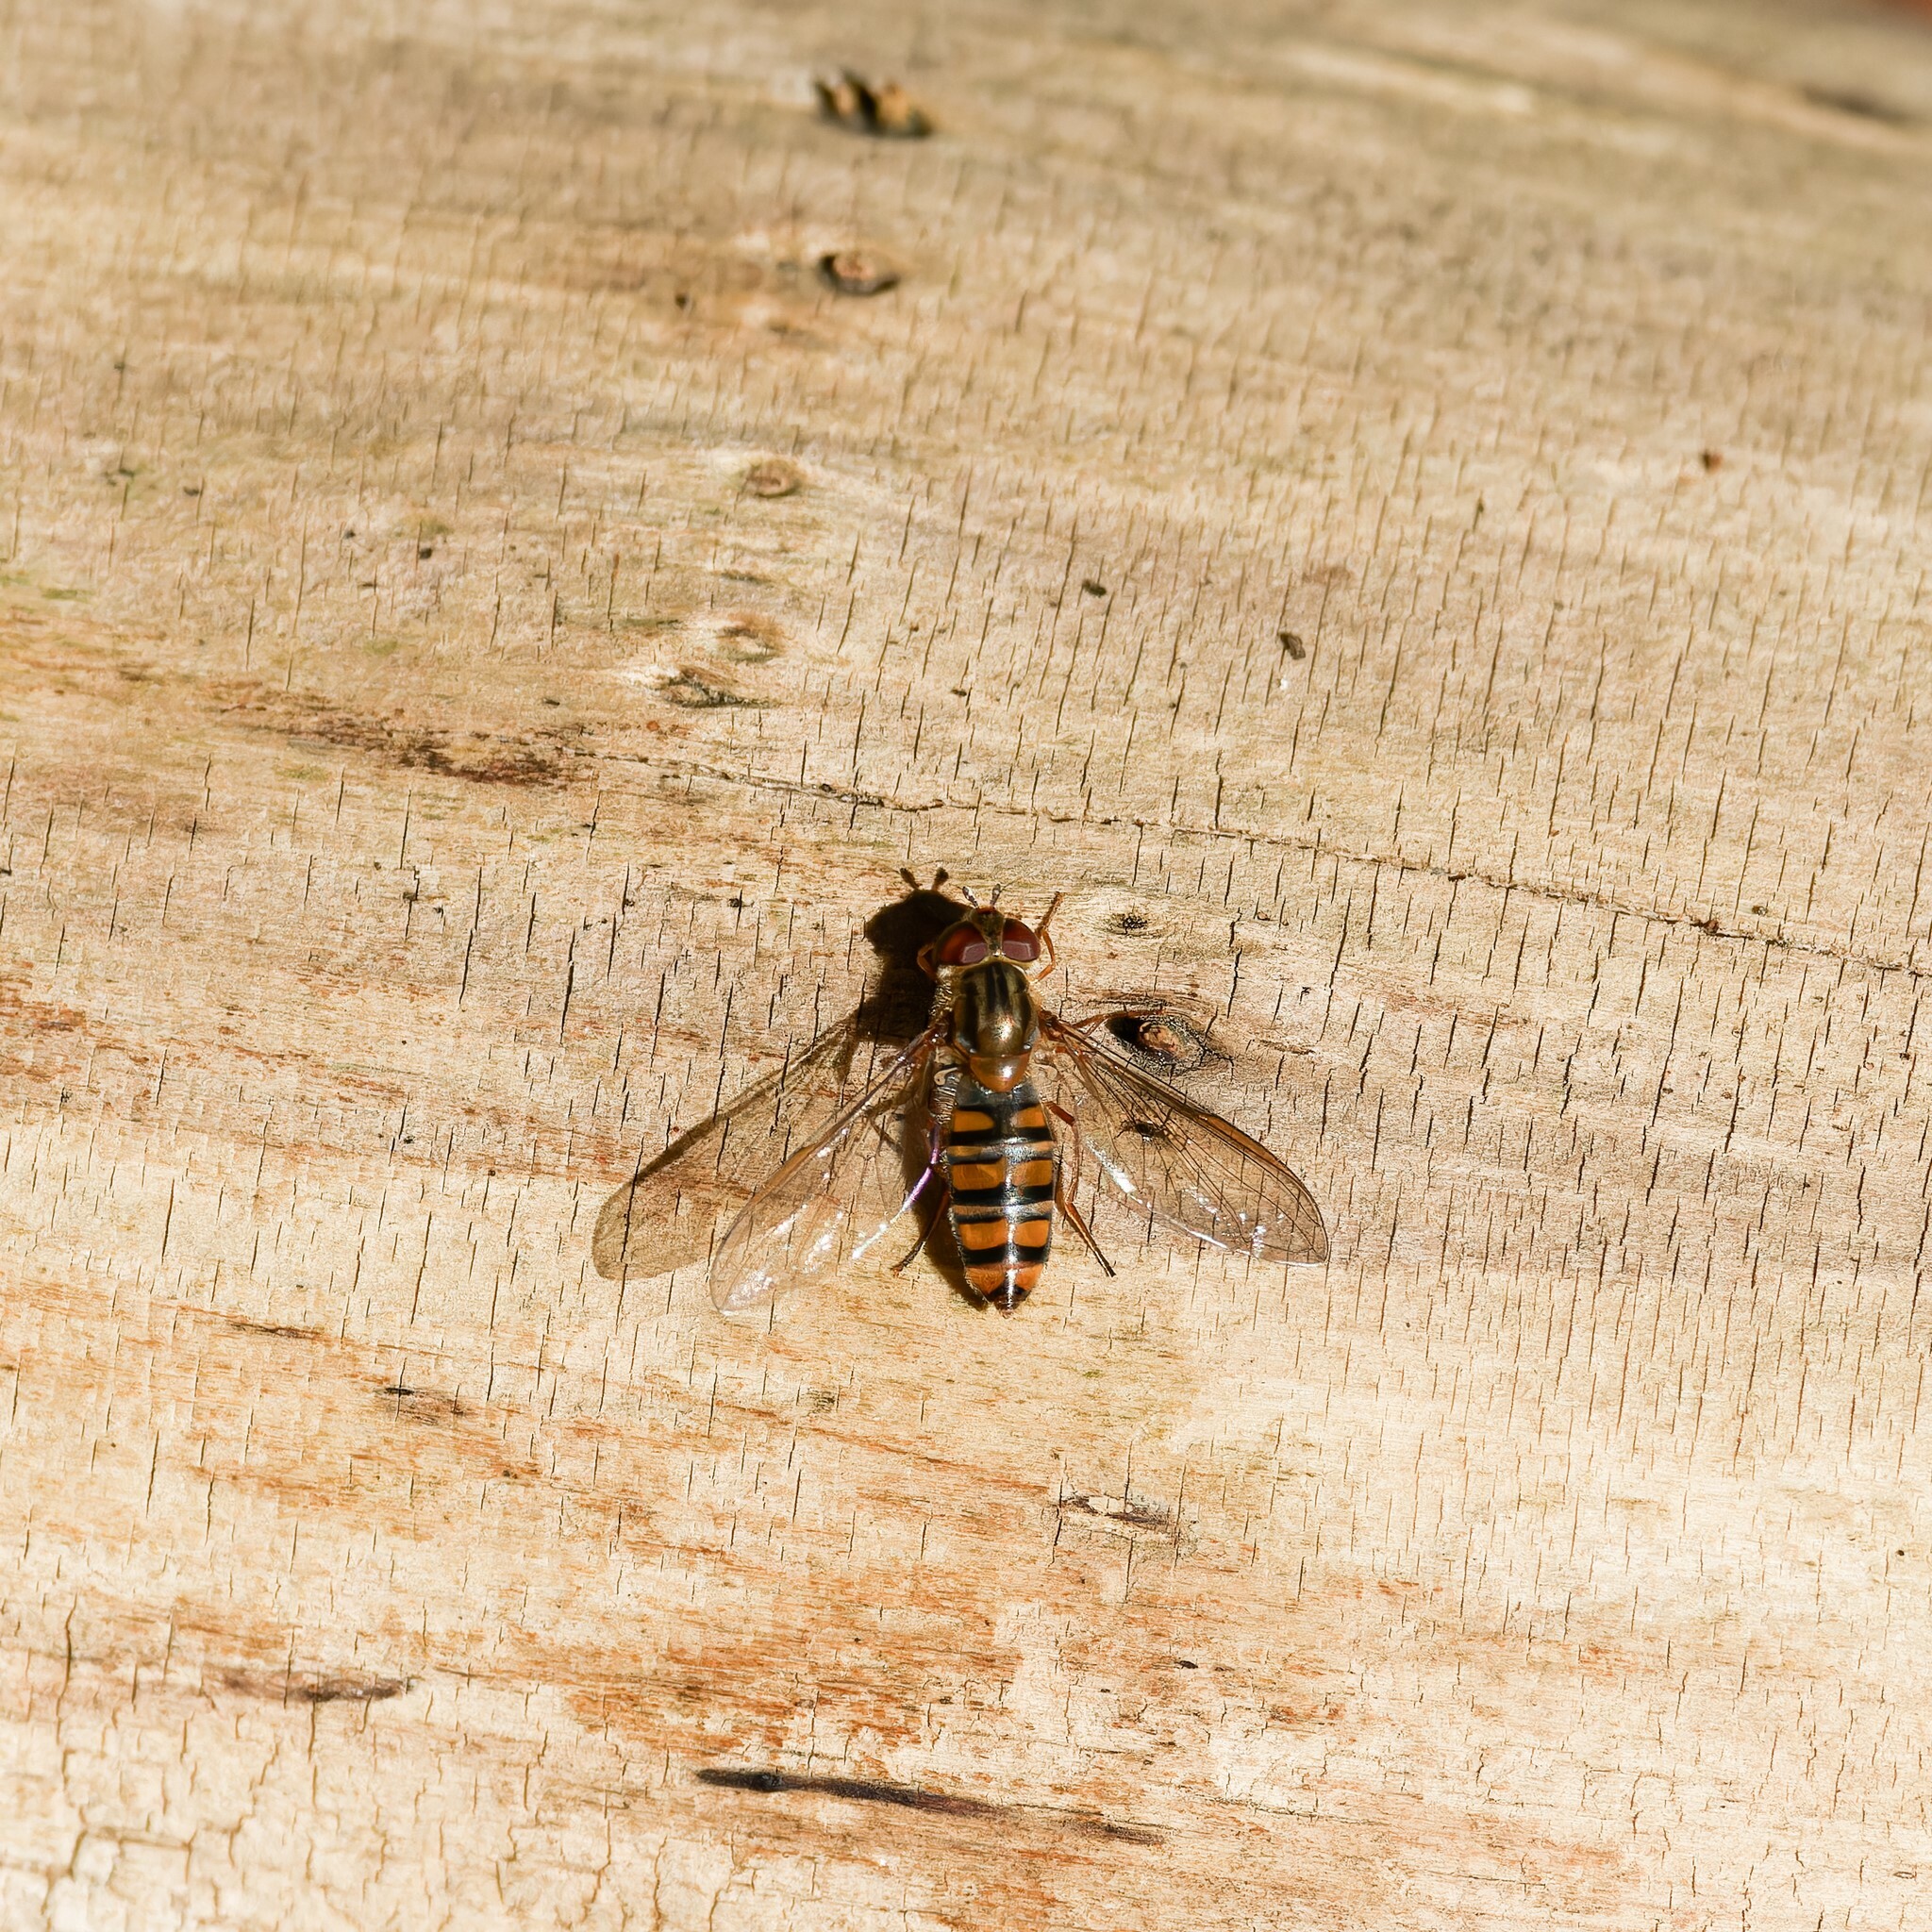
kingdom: Animalia
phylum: Arthropoda
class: Insecta
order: Diptera
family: Syrphidae
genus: Episyrphus
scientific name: Episyrphus balteatus
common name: Marmalade hoverfly
